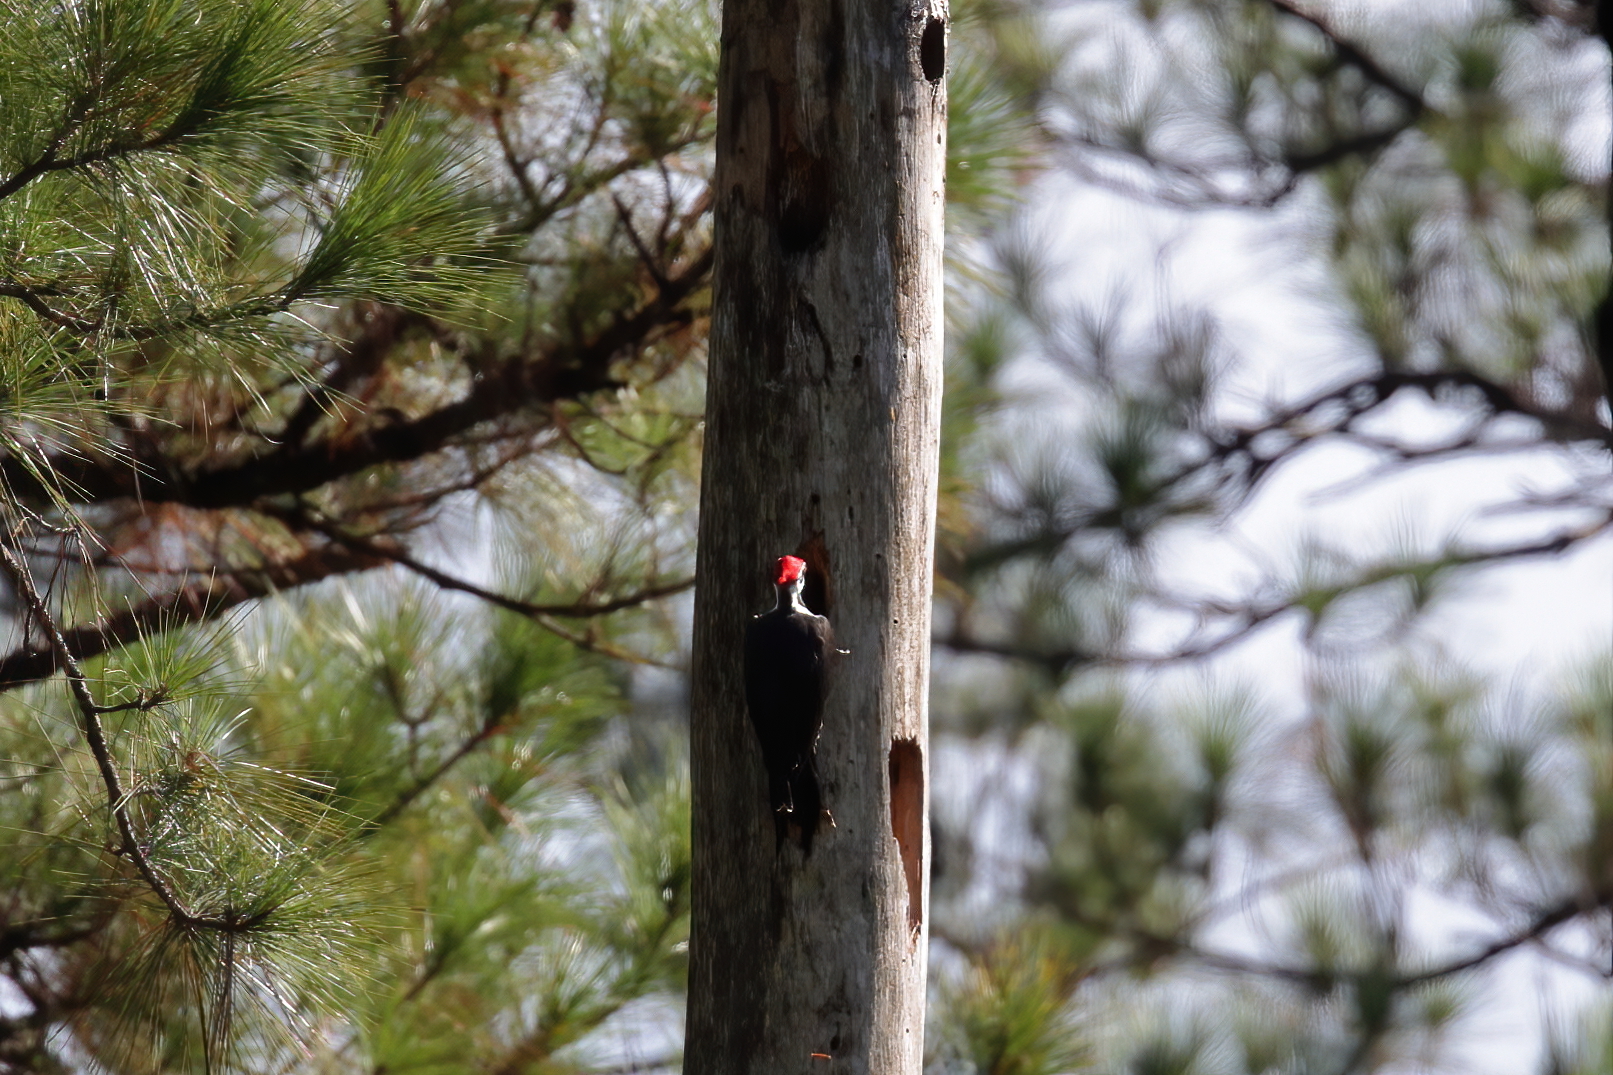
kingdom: Animalia
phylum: Chordata
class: Aves
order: Piciformes
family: Picidae
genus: Dryocopus
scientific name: Dryocopus pileatus
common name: Pileated woodpecker
